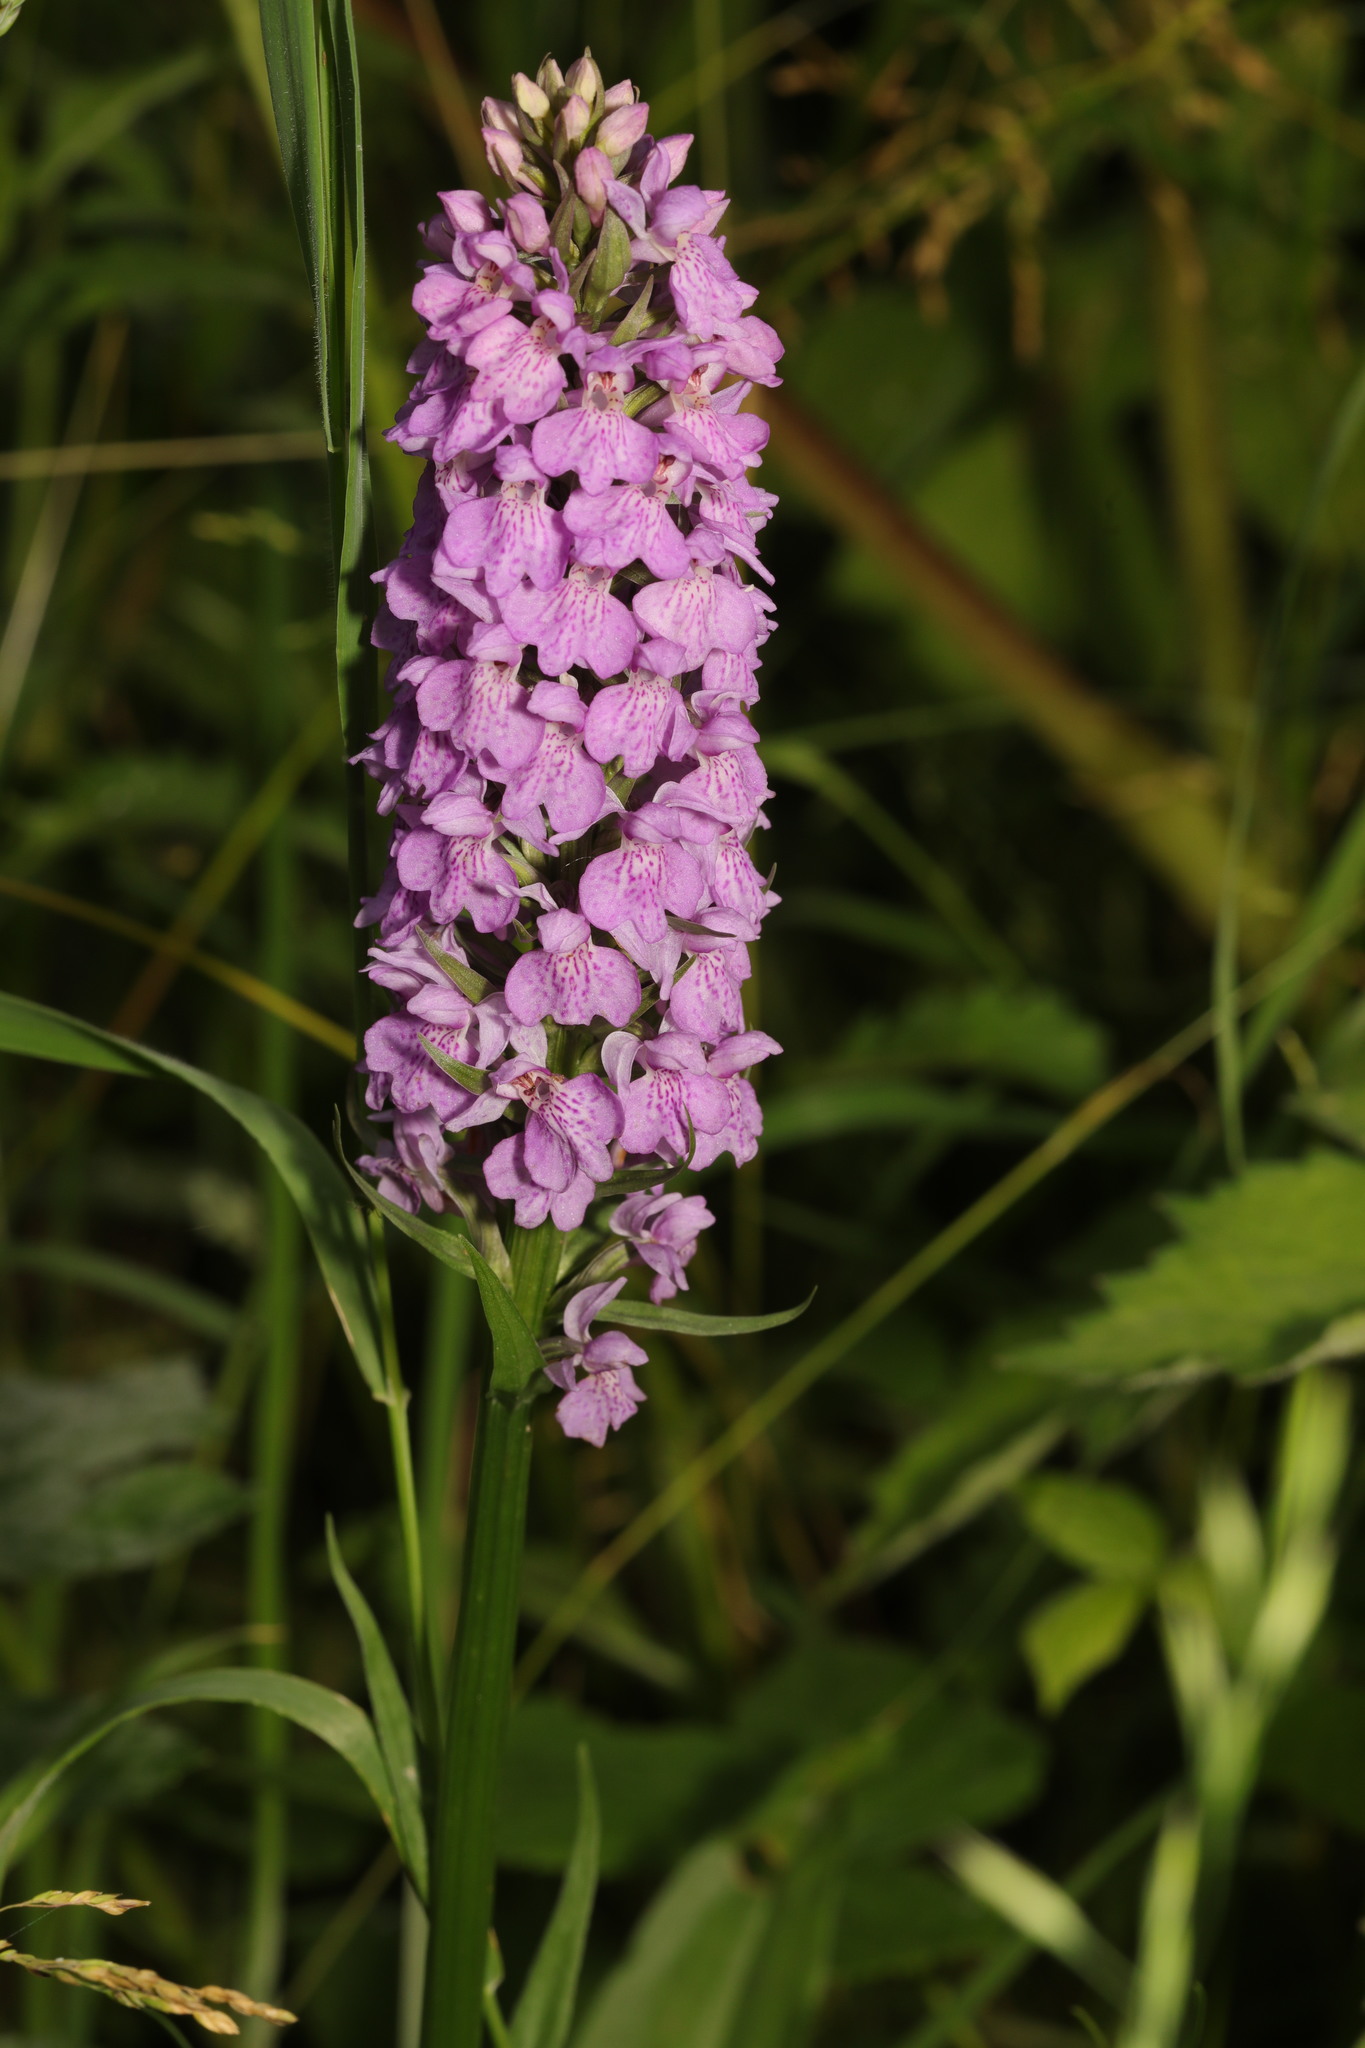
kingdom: Plantae
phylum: Tracheophyta
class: Liliopsida
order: Asparagales
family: Orchidaceae
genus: Dactylorhiza
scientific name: Dactylorhiza majalis
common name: Marsh orchid
